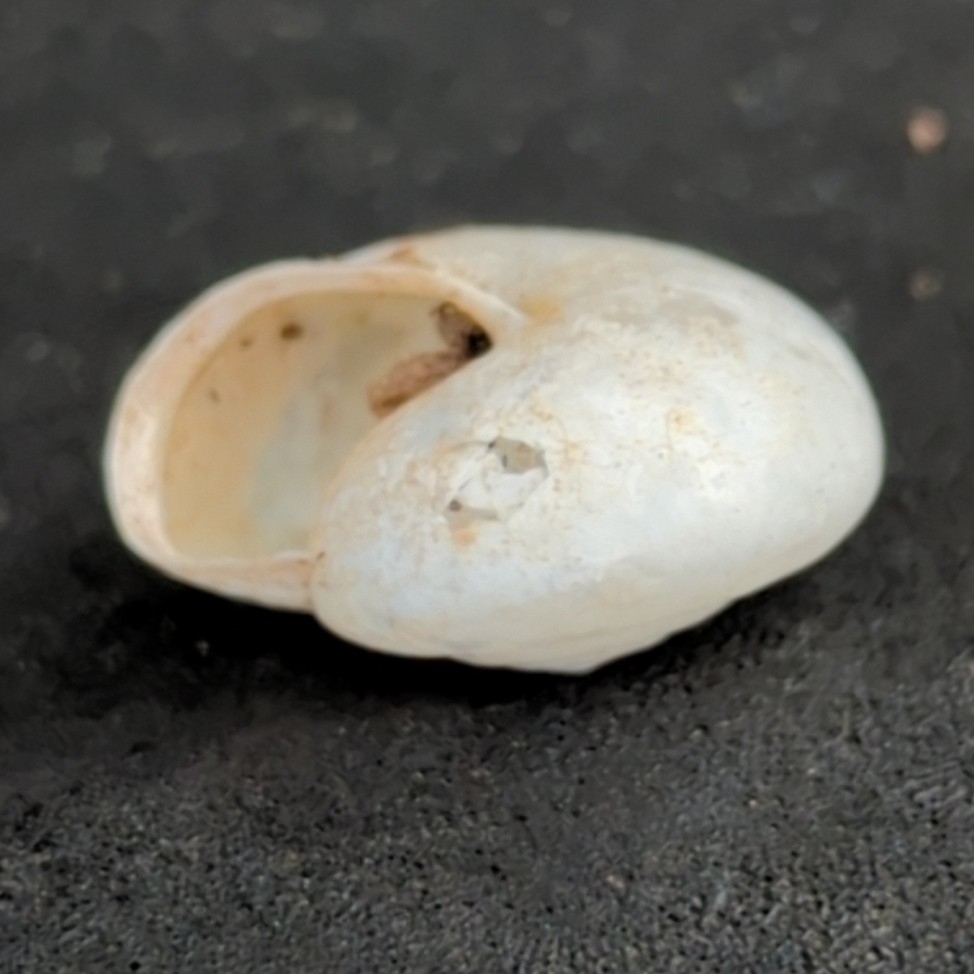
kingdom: Animalia
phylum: Mollusca
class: Gastropoda
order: Stylommatophora
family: Hygromiidae
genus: Monacha
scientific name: Monacha
